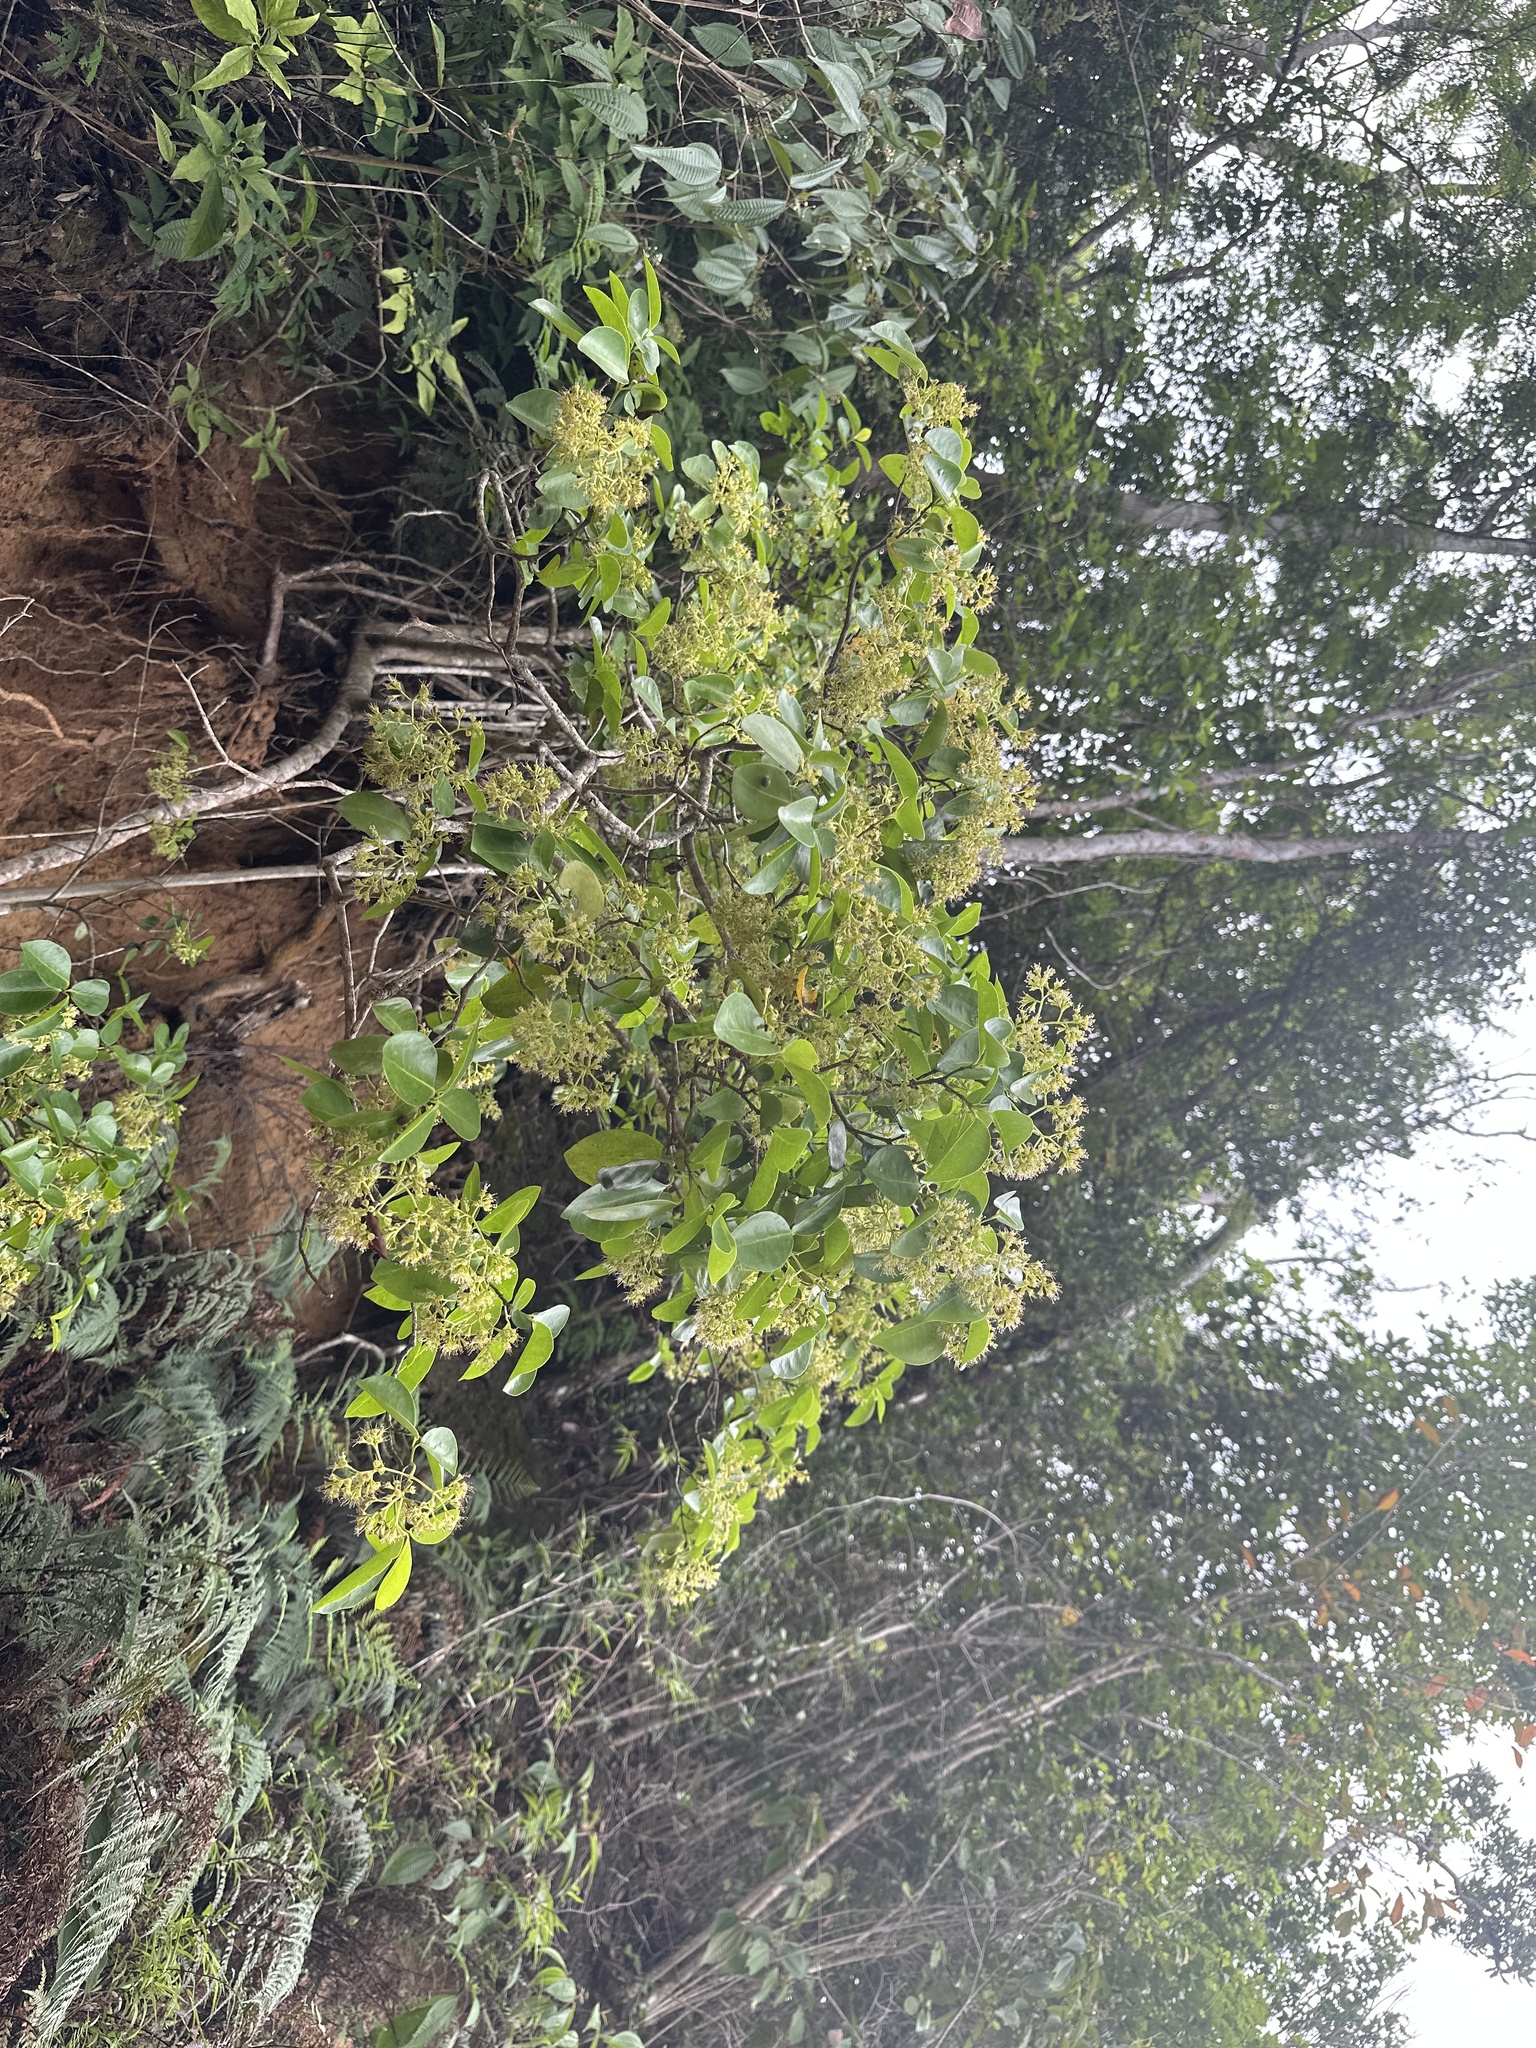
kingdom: Plantae
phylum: Tracheophyta
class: Magnoliopsida
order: Caryophyllales
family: Nyctaginaceae
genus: Guapira
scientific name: Guapira fragrans
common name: Black loblolly tree
